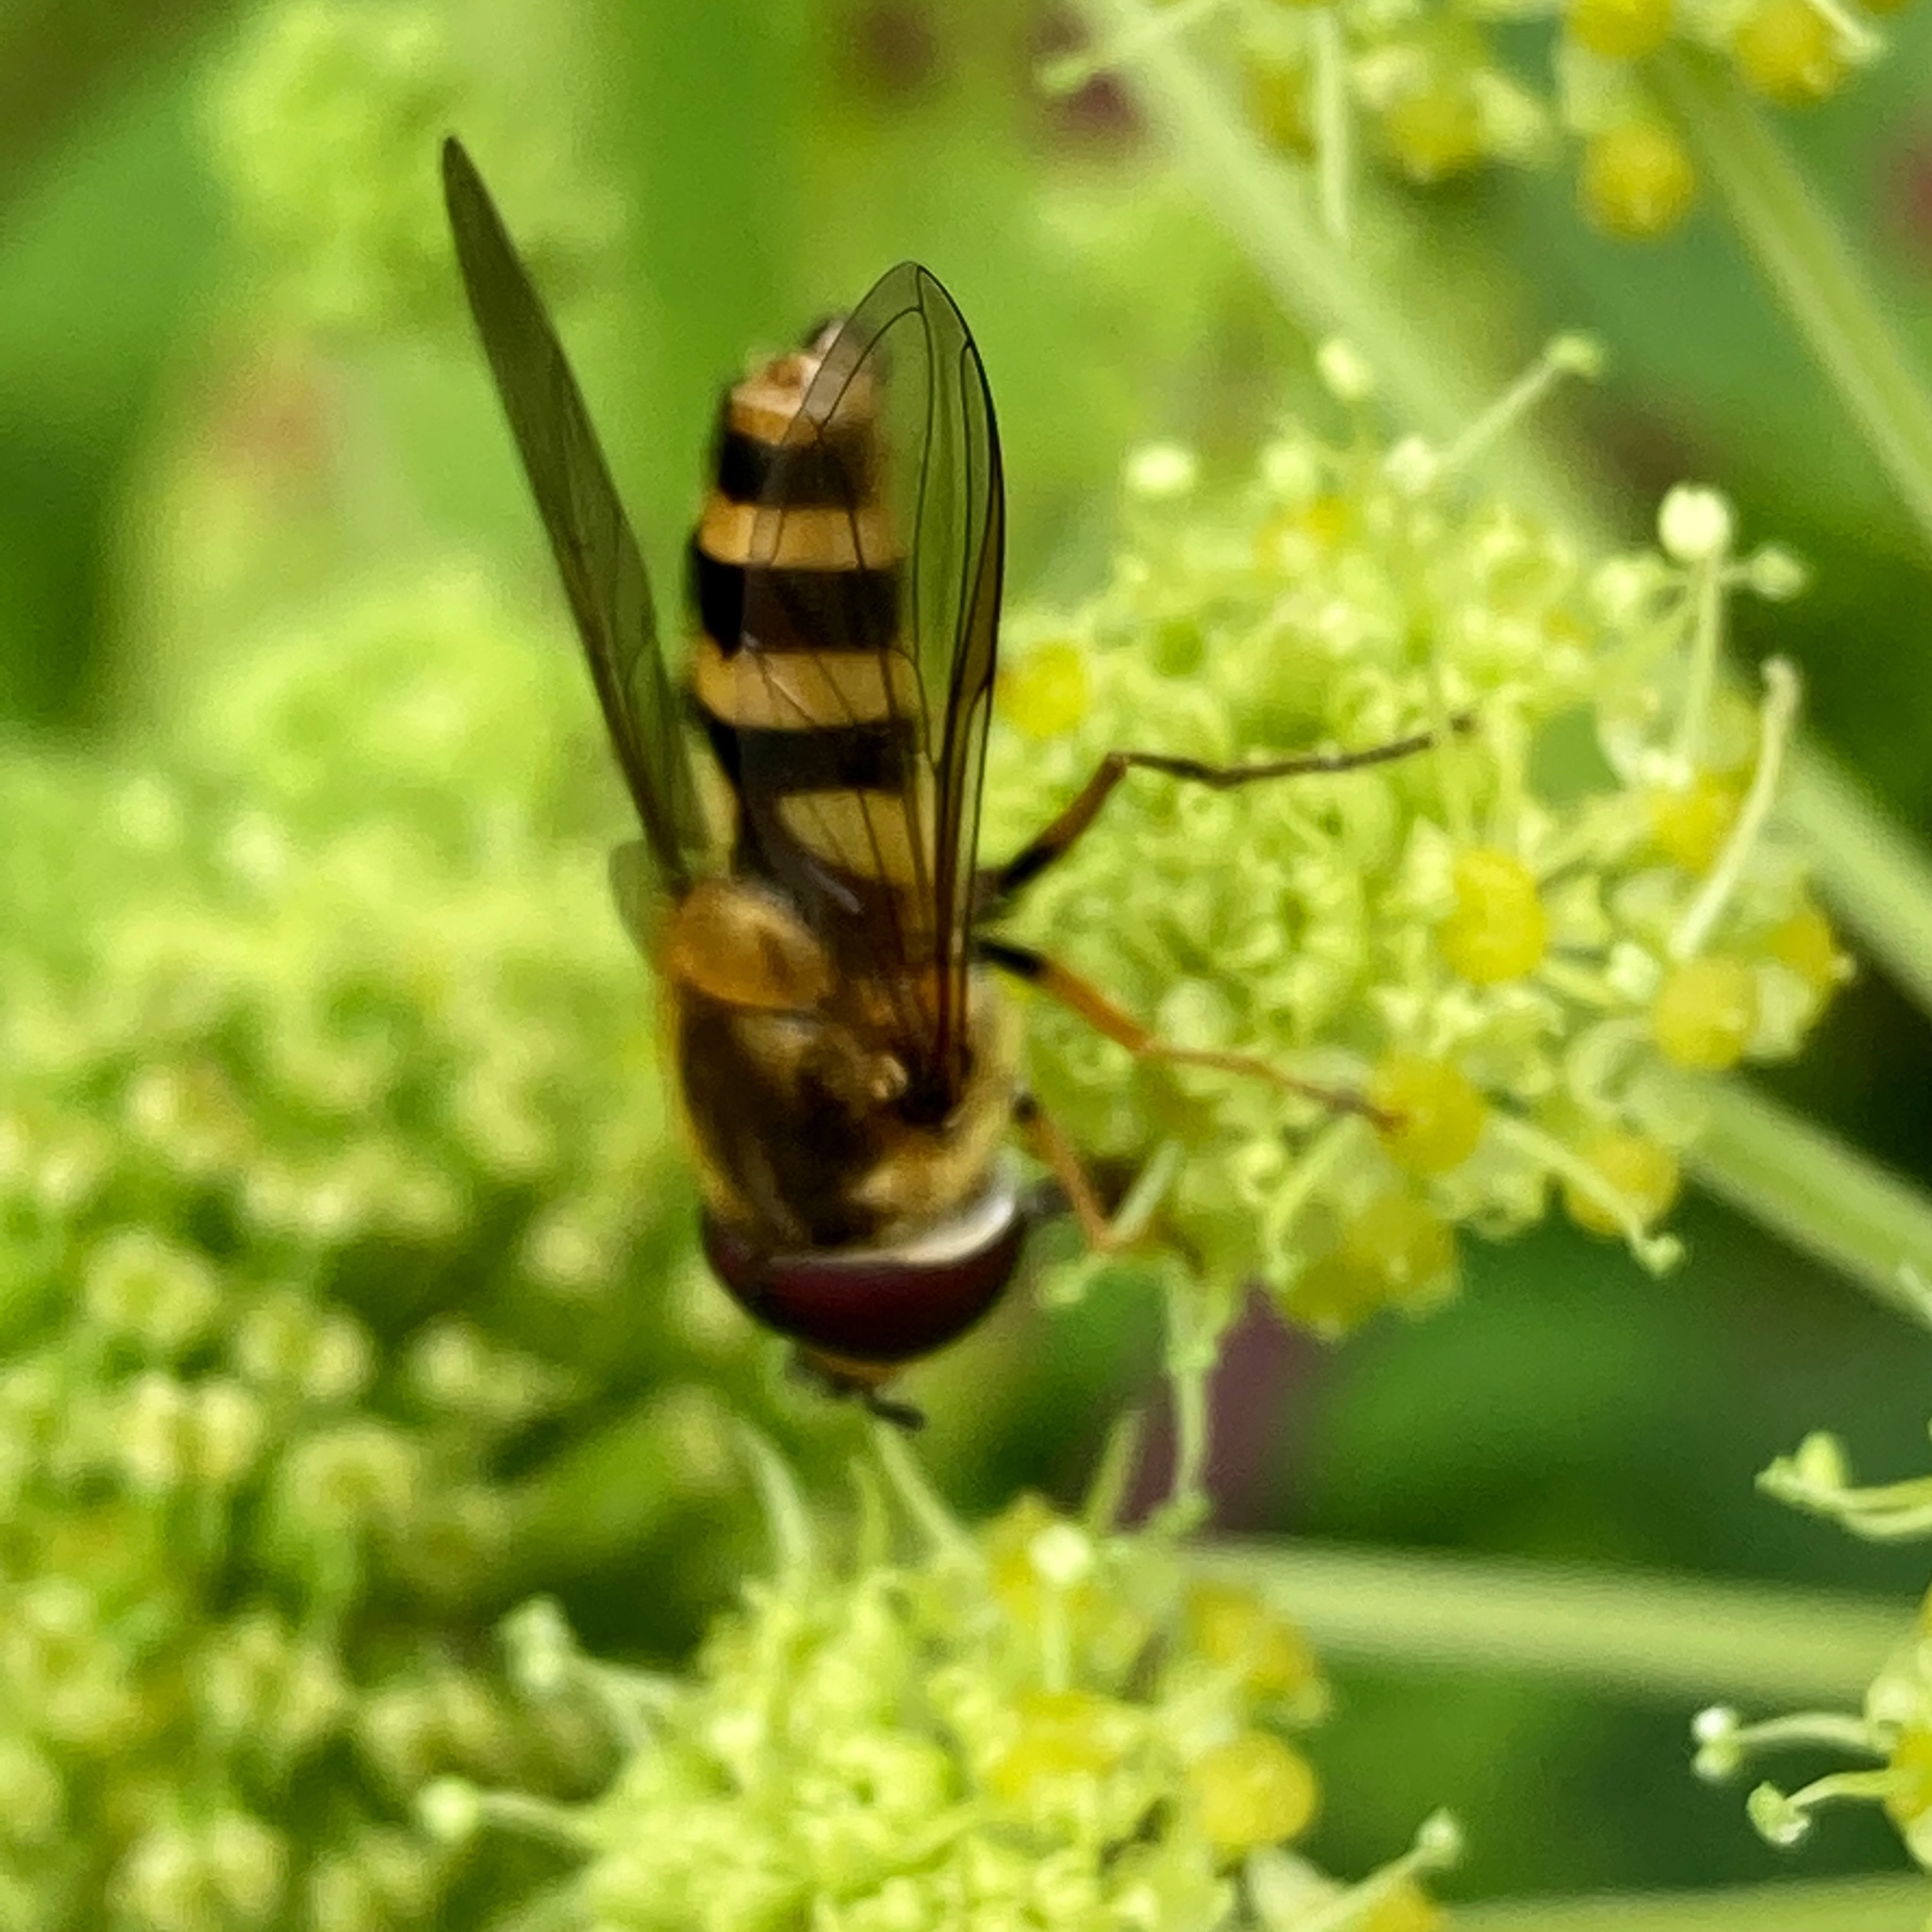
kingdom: Animalia
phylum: Arthropoda
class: Insecta
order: Diptera
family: Syrphidae
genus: Epistrophe
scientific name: Epistrophe grossulariae
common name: Black-horned smoothtail
